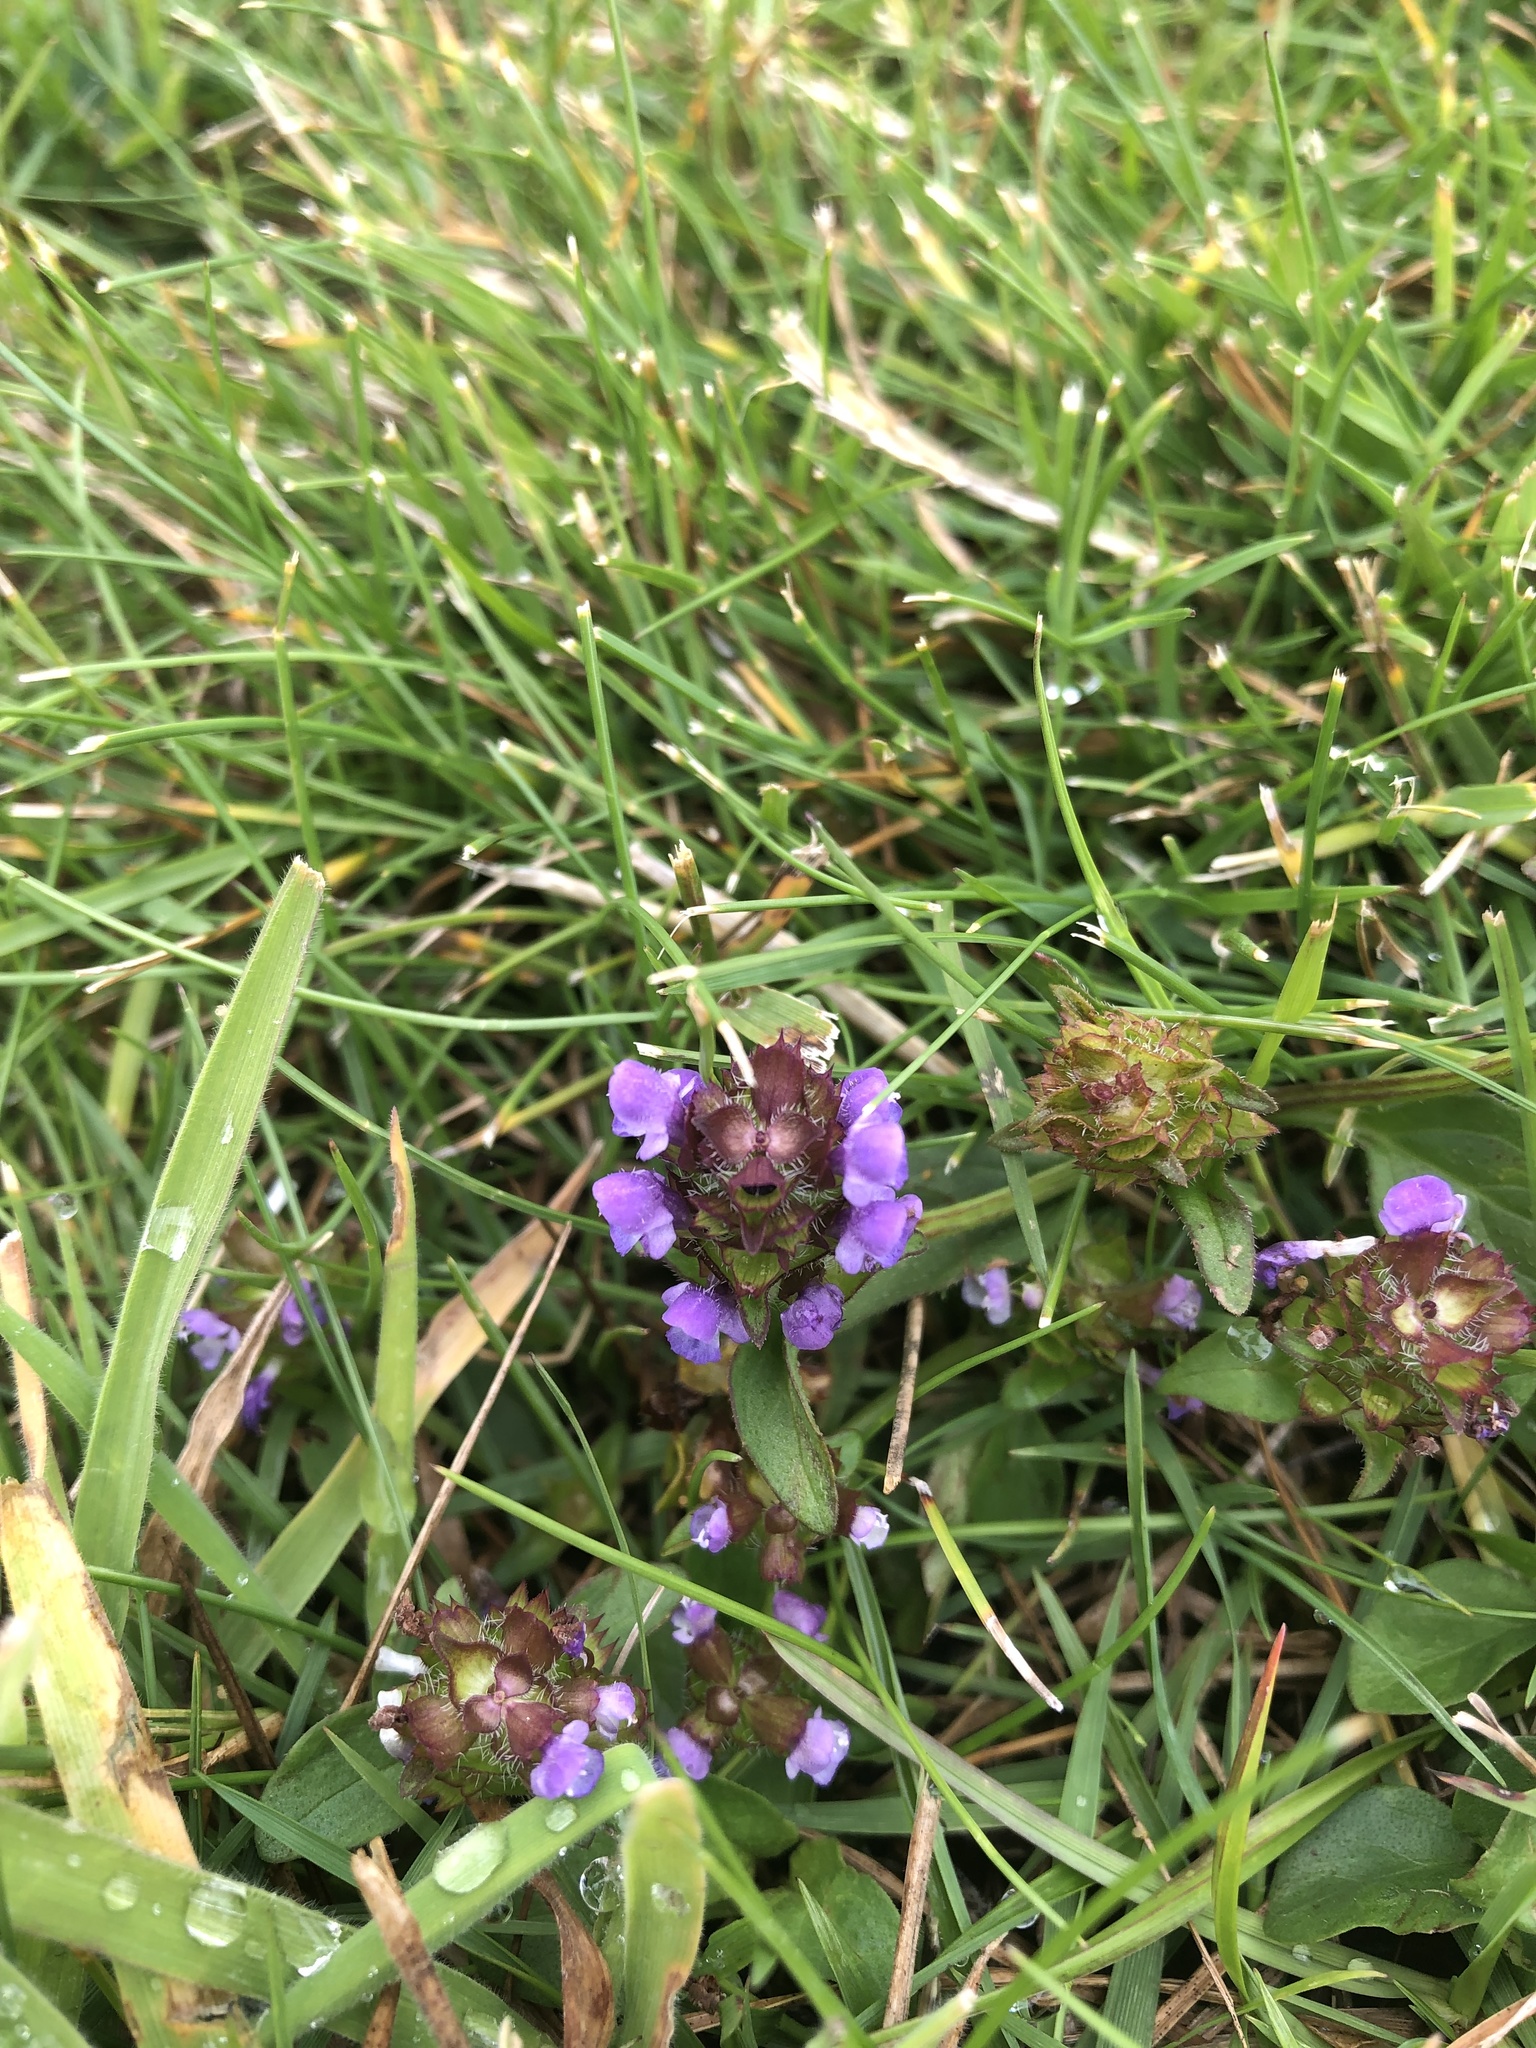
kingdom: Plantae
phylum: Tracheophyta
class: Magnoliopsida
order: Lamiales
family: Lamiaceae
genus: Prunella
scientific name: Prunella vulgaris
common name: Heal-all
